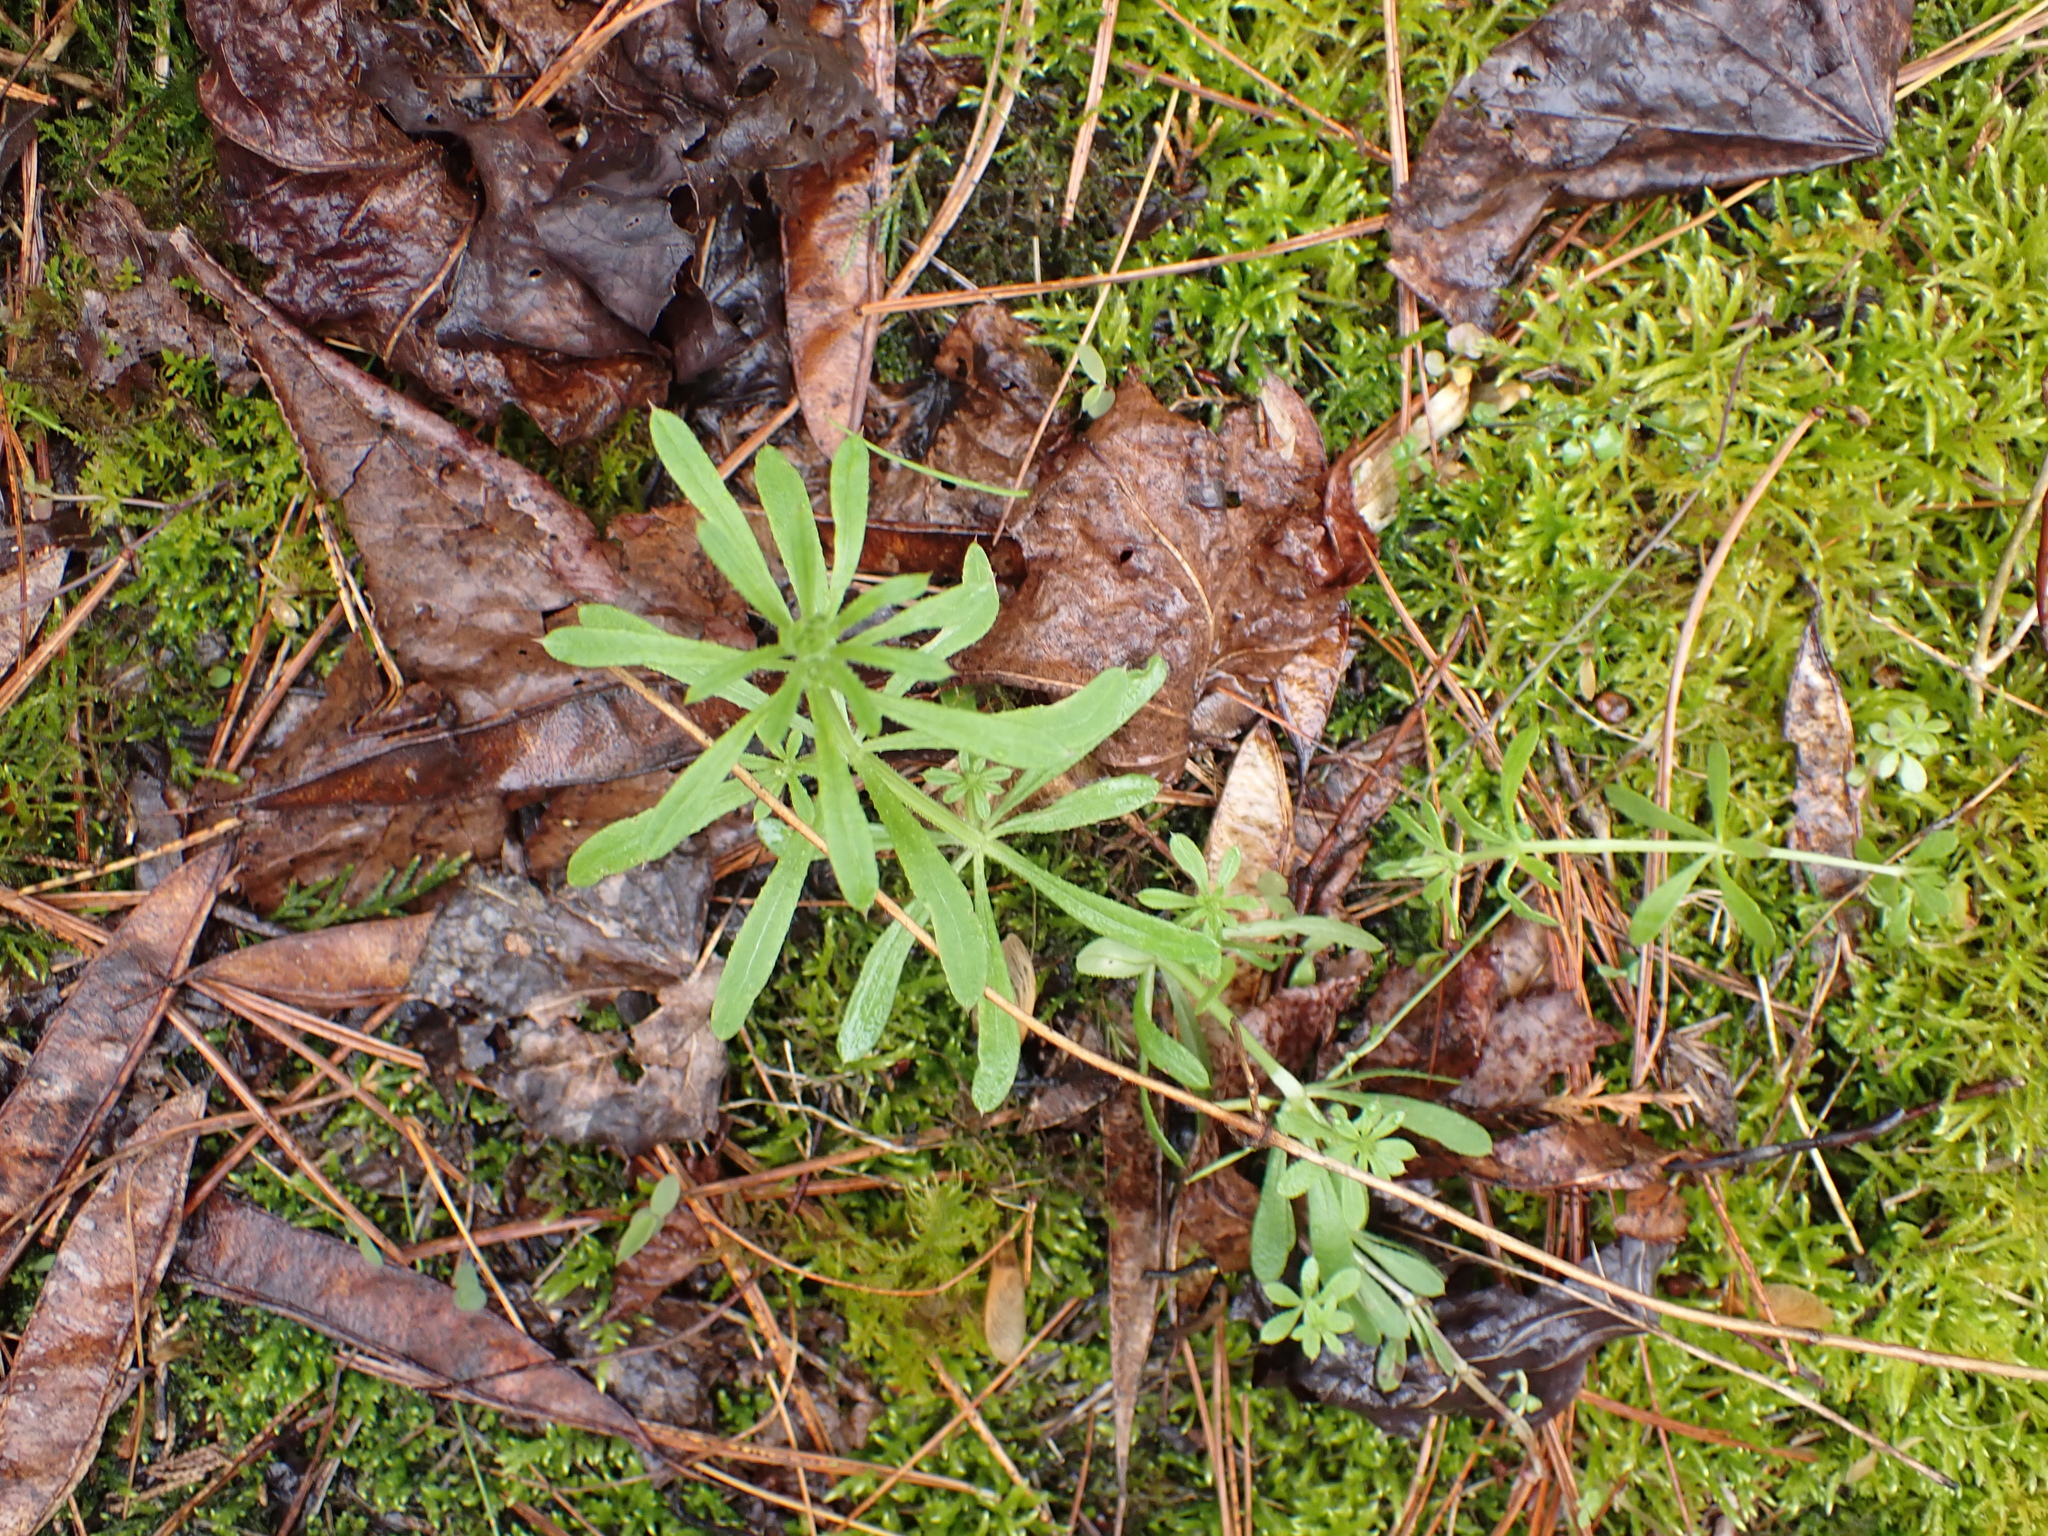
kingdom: Plantae
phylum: Tracheophyta
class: Magnoliopsida
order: Gentianales
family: Rubiaceae
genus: Galium
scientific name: Galium aparine
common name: Cleavers
